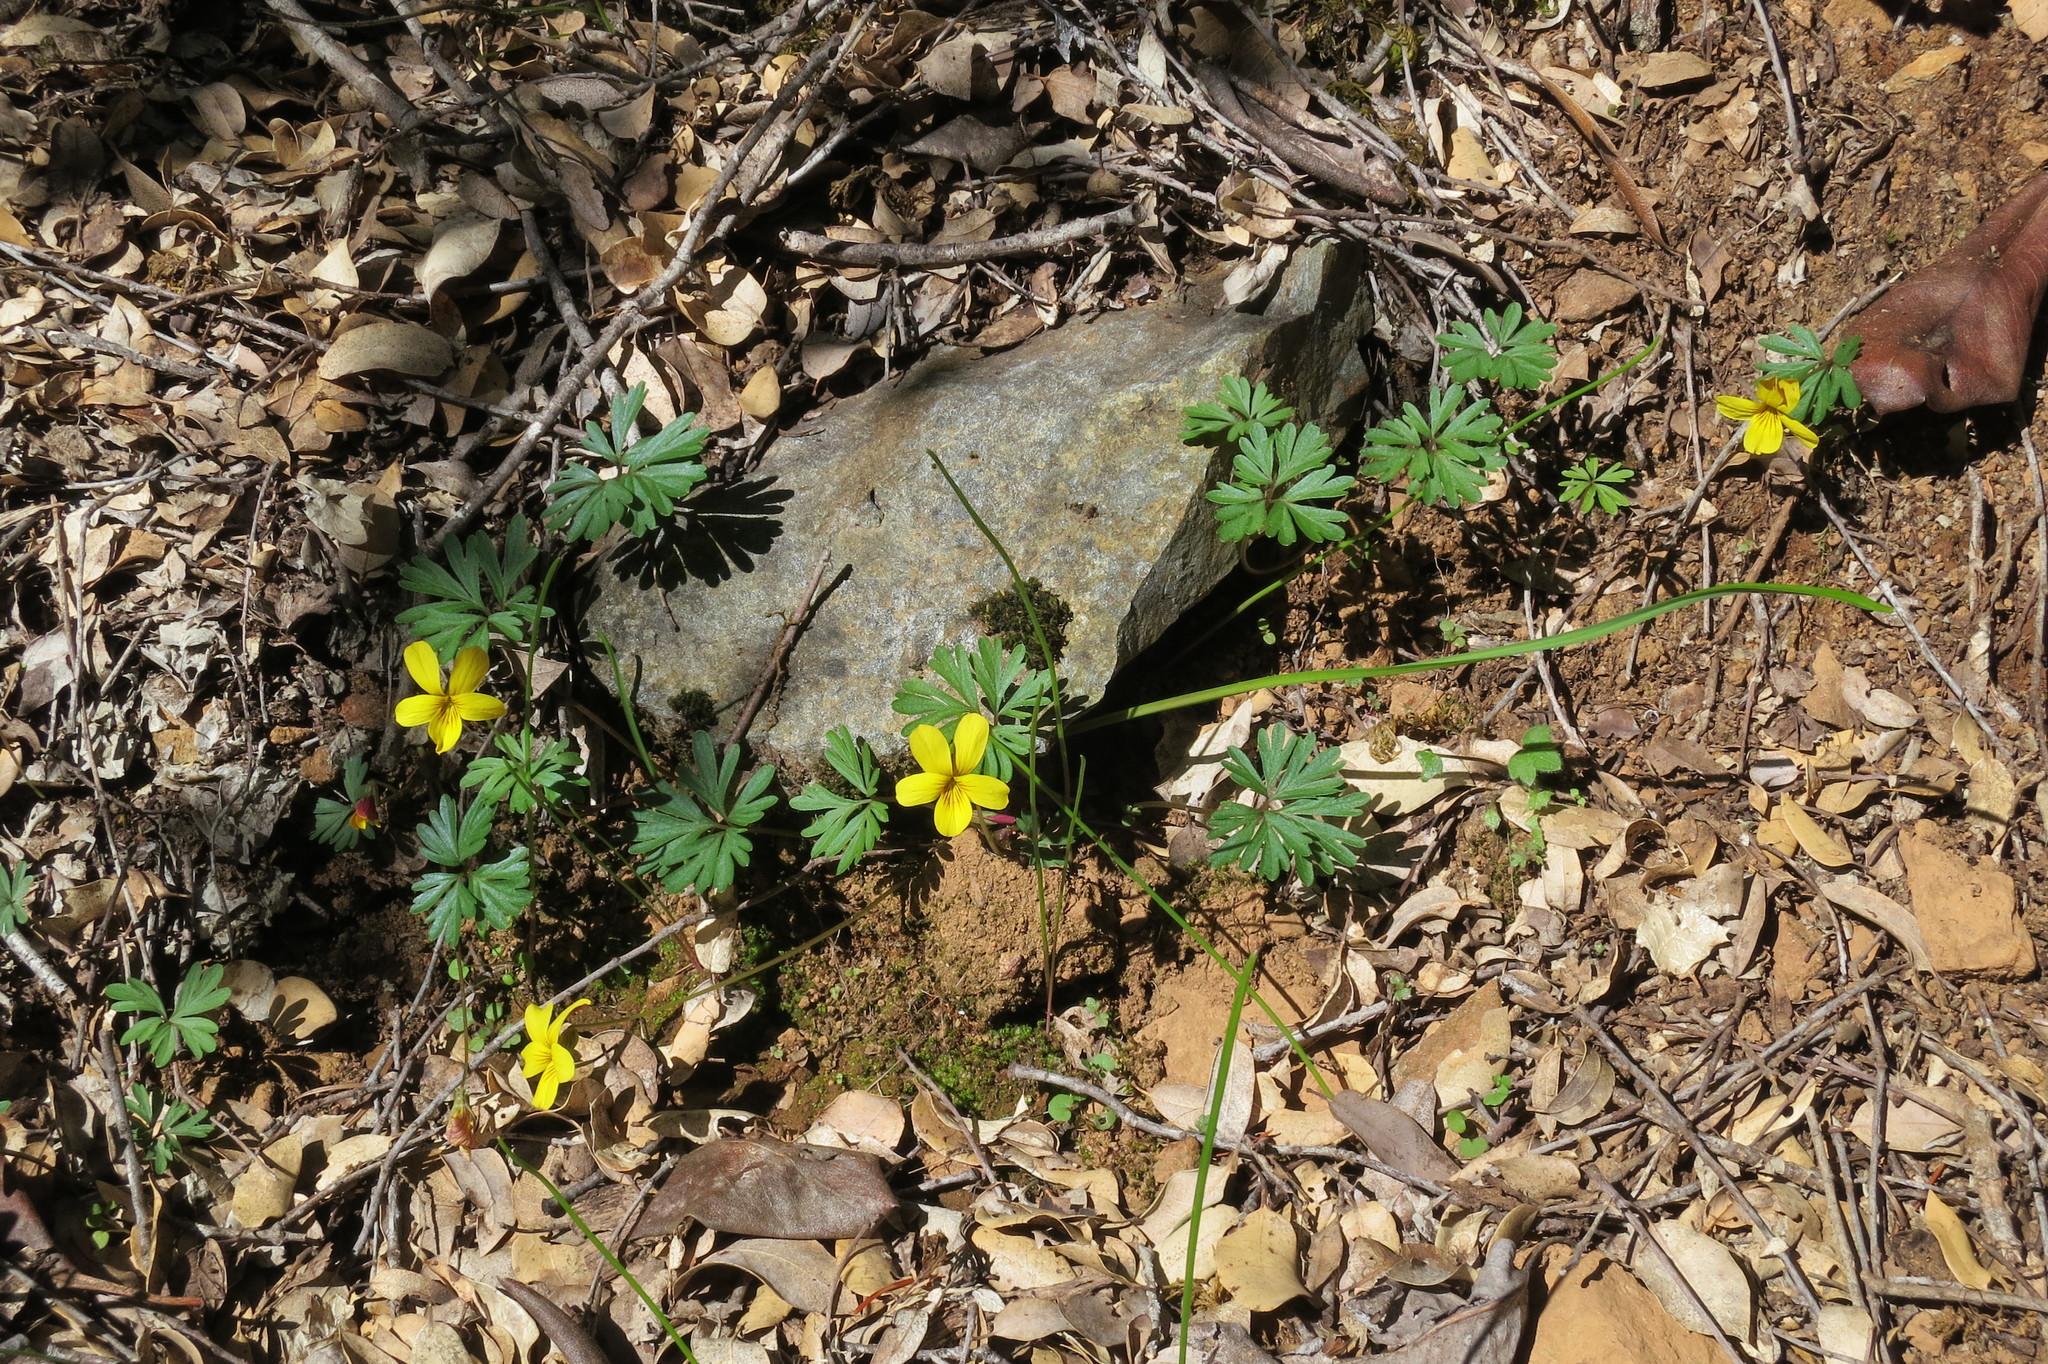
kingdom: Plantae
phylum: Tracheophyta
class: Magnoliopsida
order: Malpighiales
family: Violaceae
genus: Viola
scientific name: Viola sheltonii
